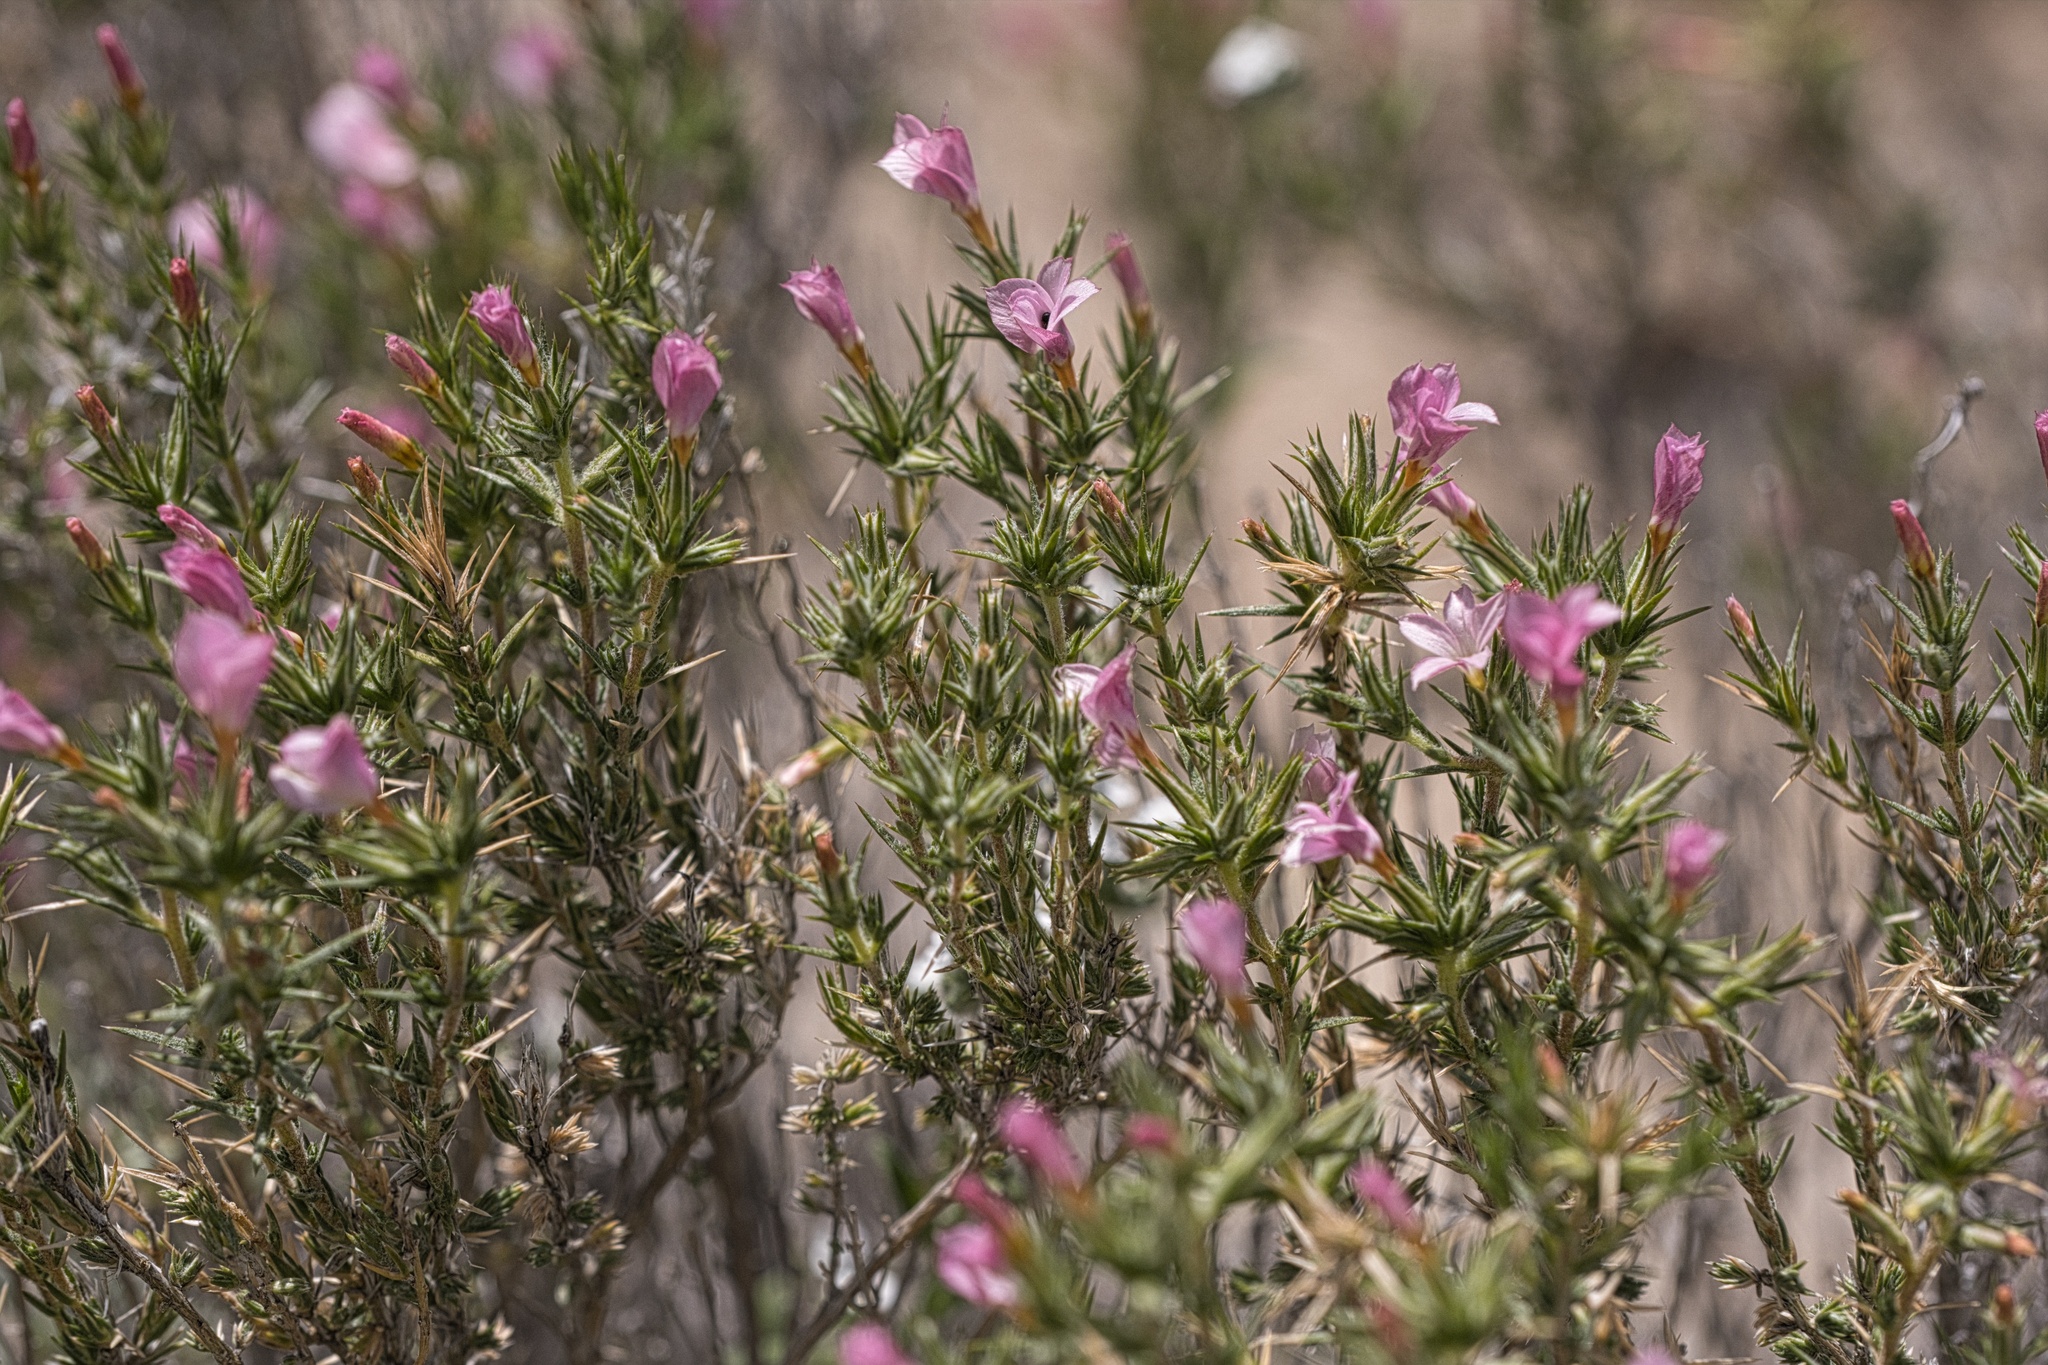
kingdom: Plantae
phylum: Tracheophyta
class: Magnoliopsida
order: Ericales
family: Polemoniaceae
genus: Linanthus
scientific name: Linanthus pungens
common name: Granite prickly phlox
